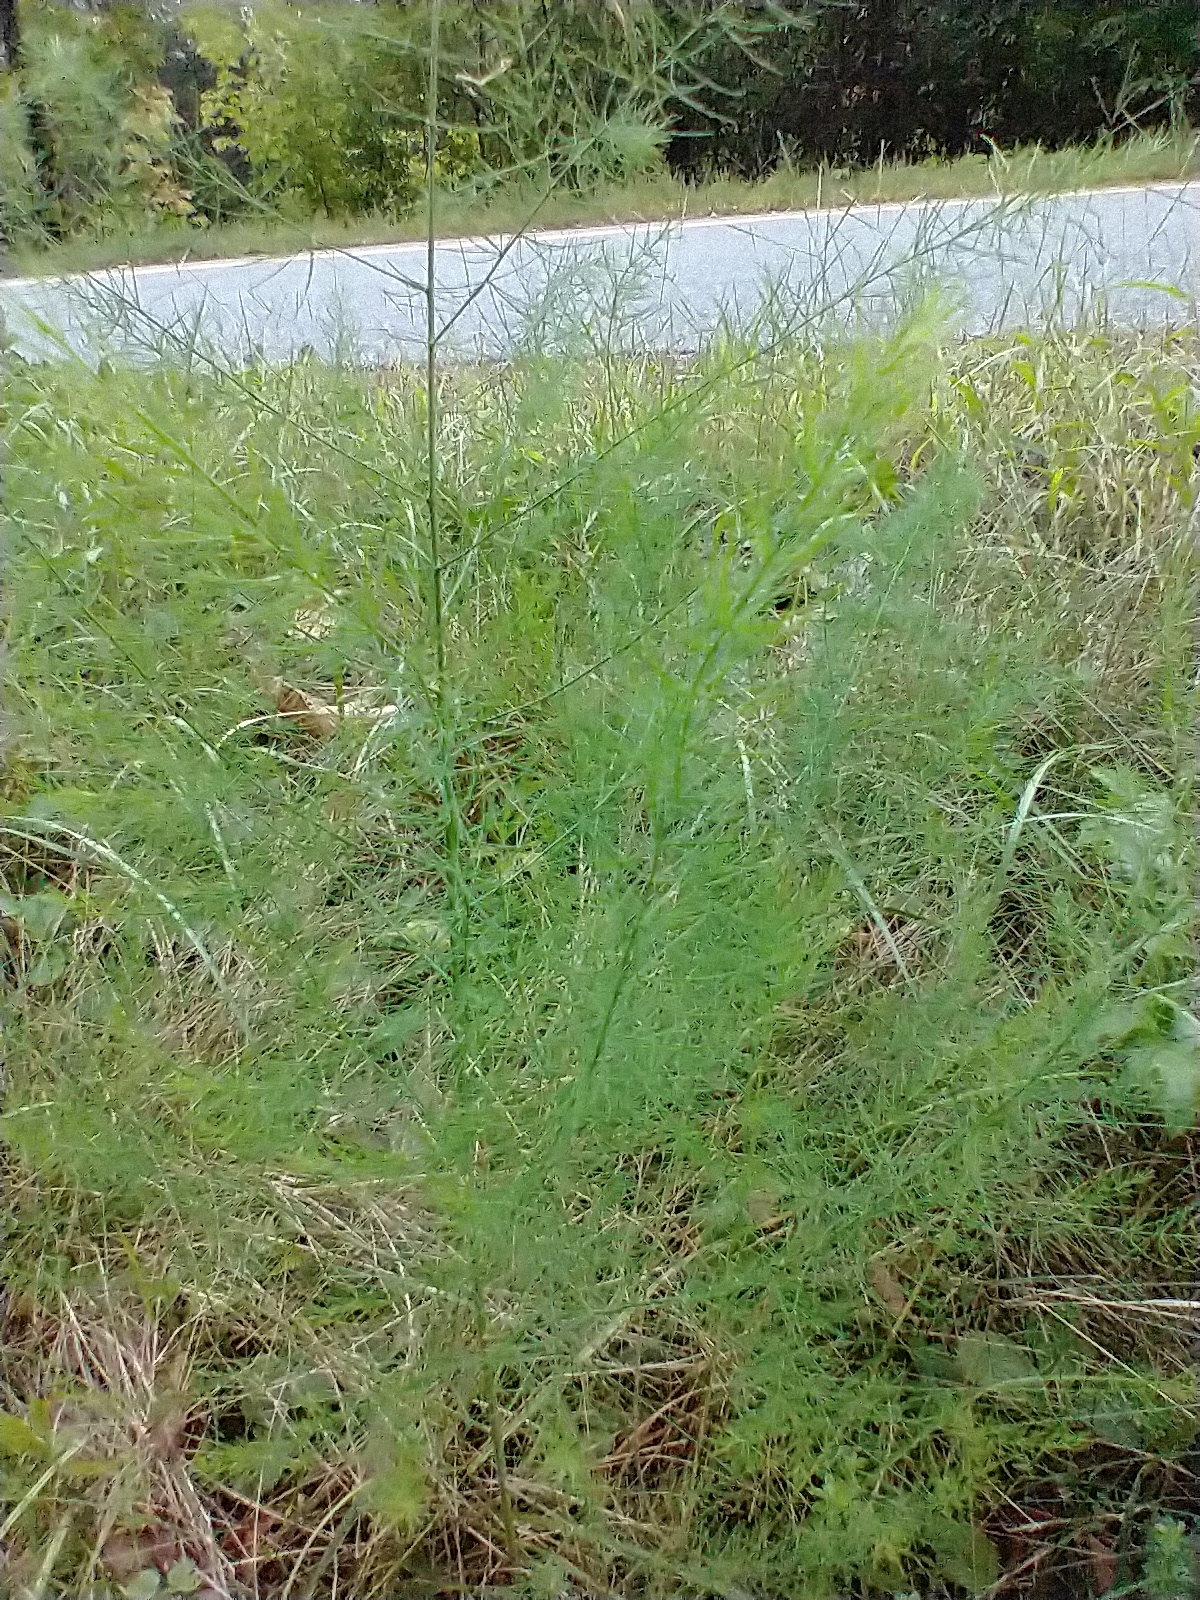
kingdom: Plantae
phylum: Tracheophyta
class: Liliopsida
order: Asparagales
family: Asparagaceae
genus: Asparagus
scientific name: Asparagus officinalis
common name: Garden asparagus
